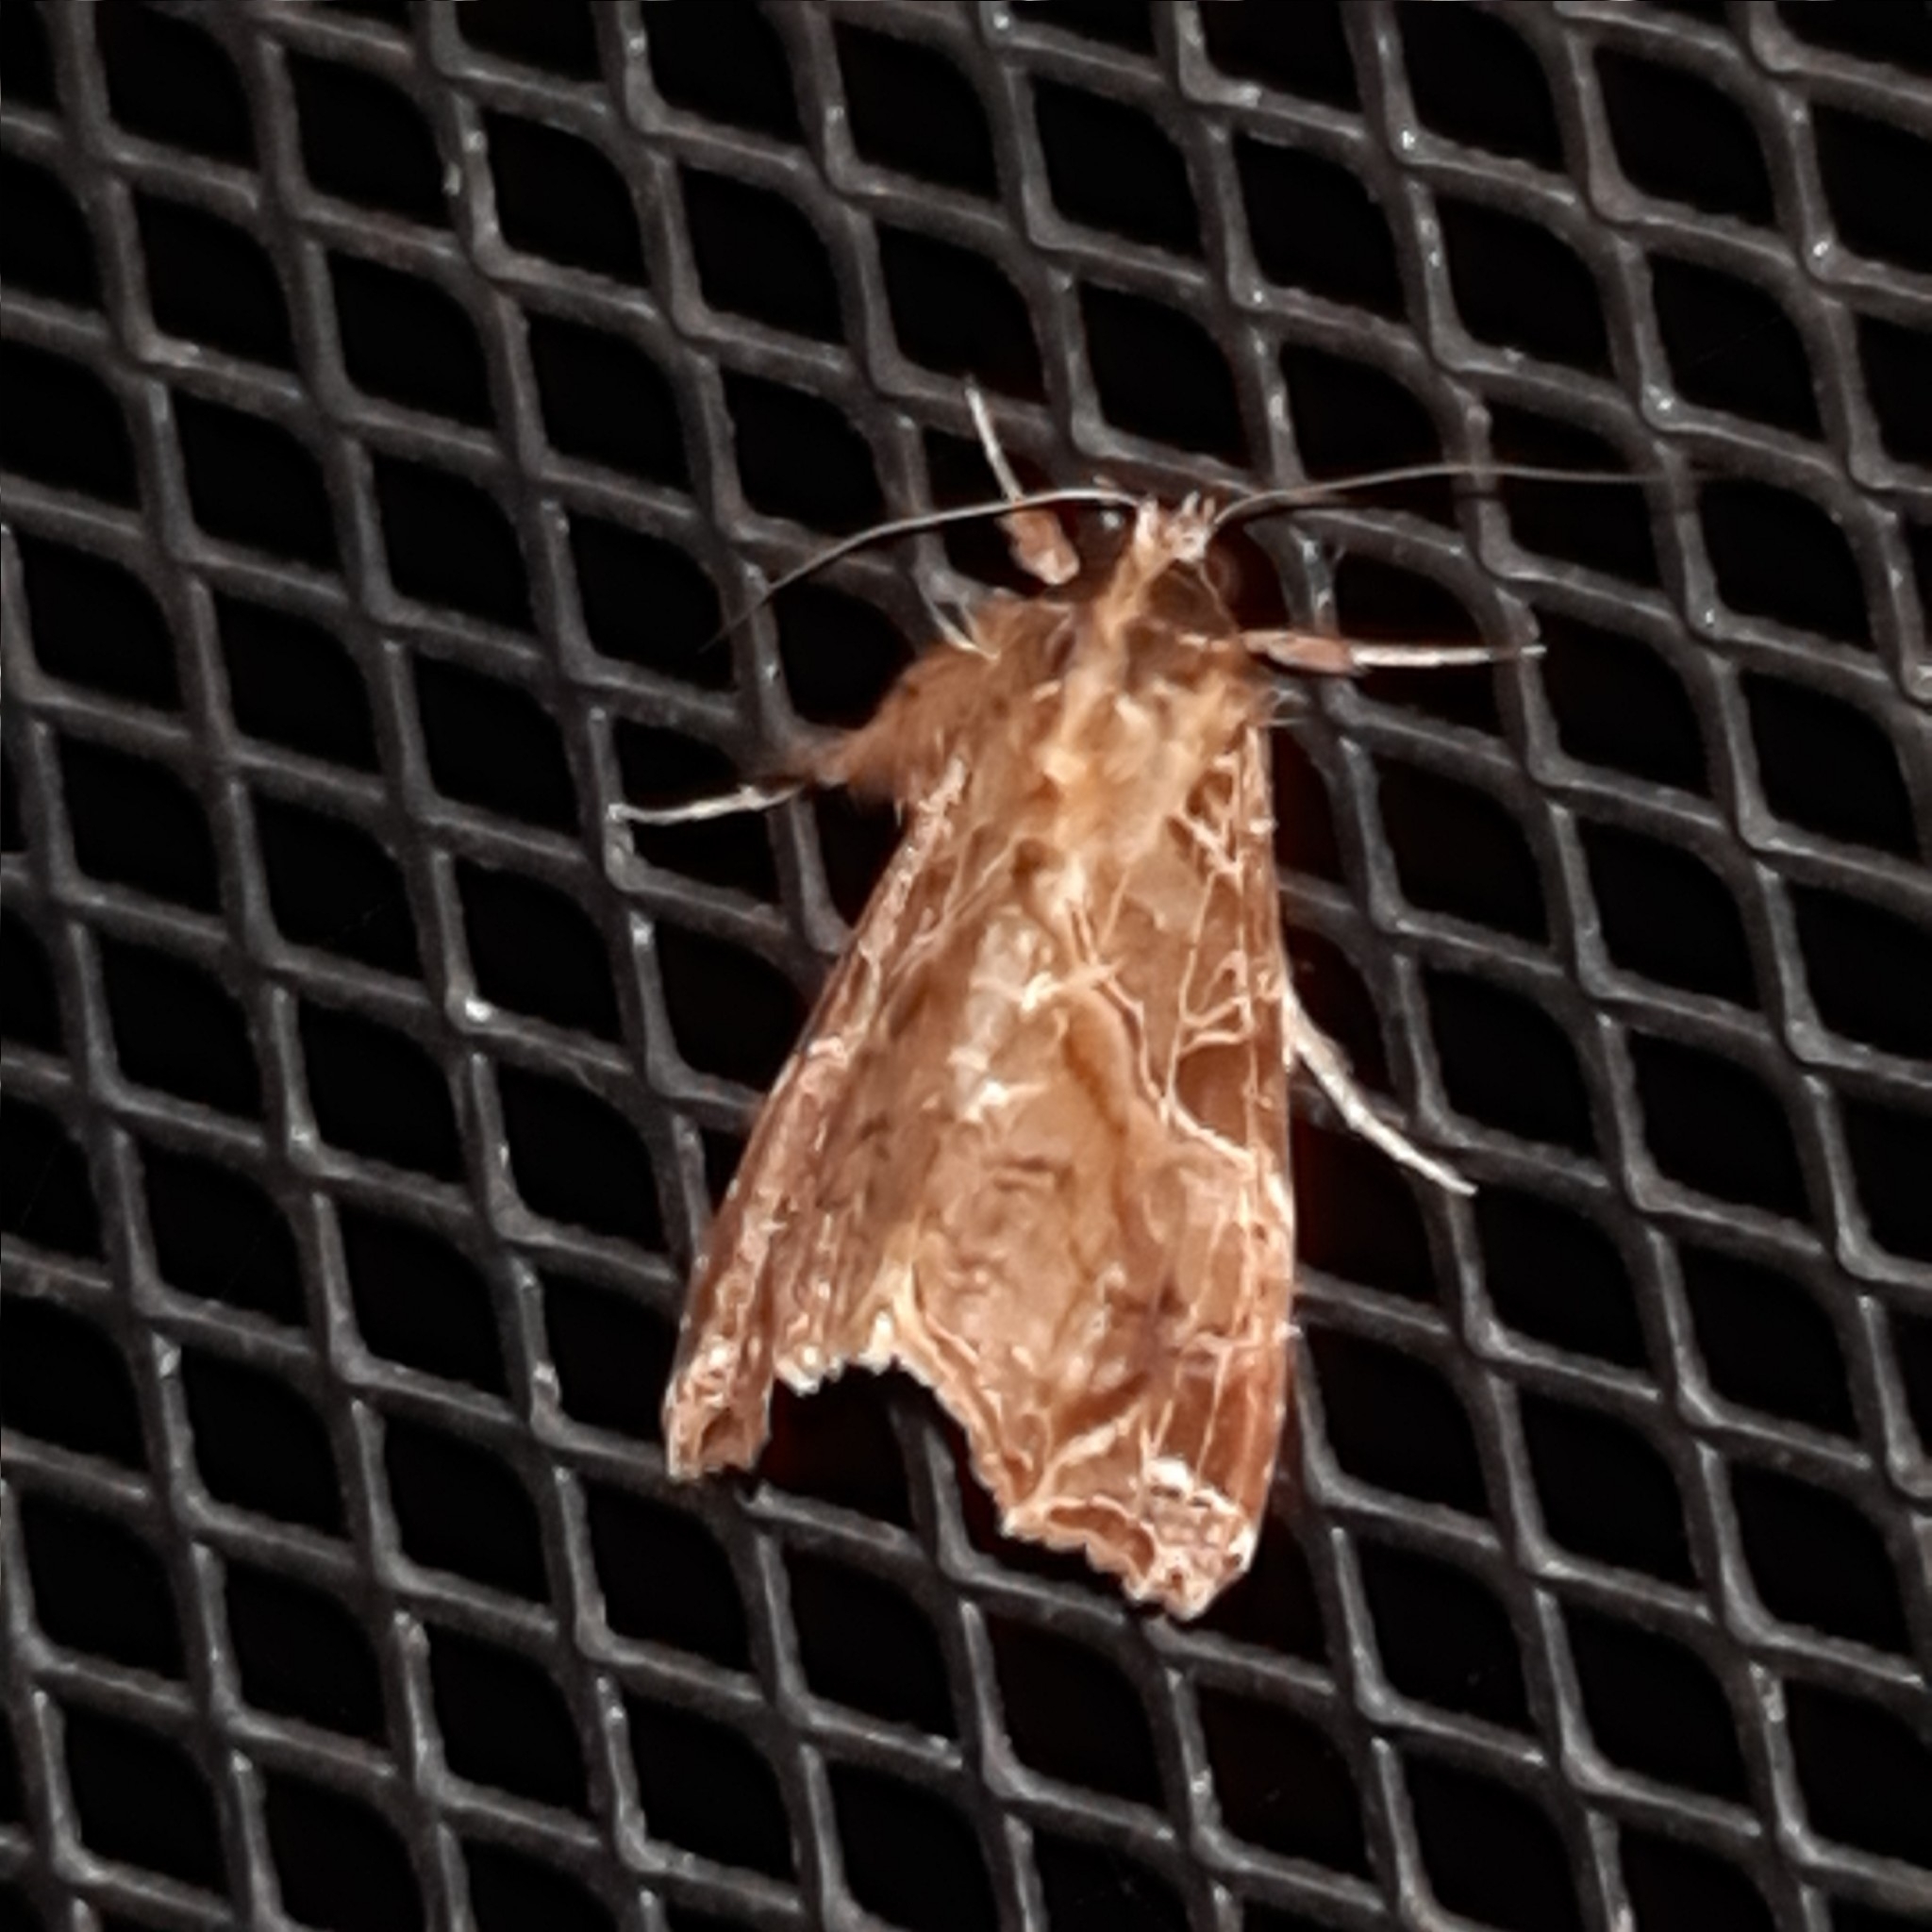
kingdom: Animalia
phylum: Arthropoda
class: Insecta
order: Lepidoptera
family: Noctuidae
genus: Callopistria
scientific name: Callopistria floridensis
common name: Florida fern moth
